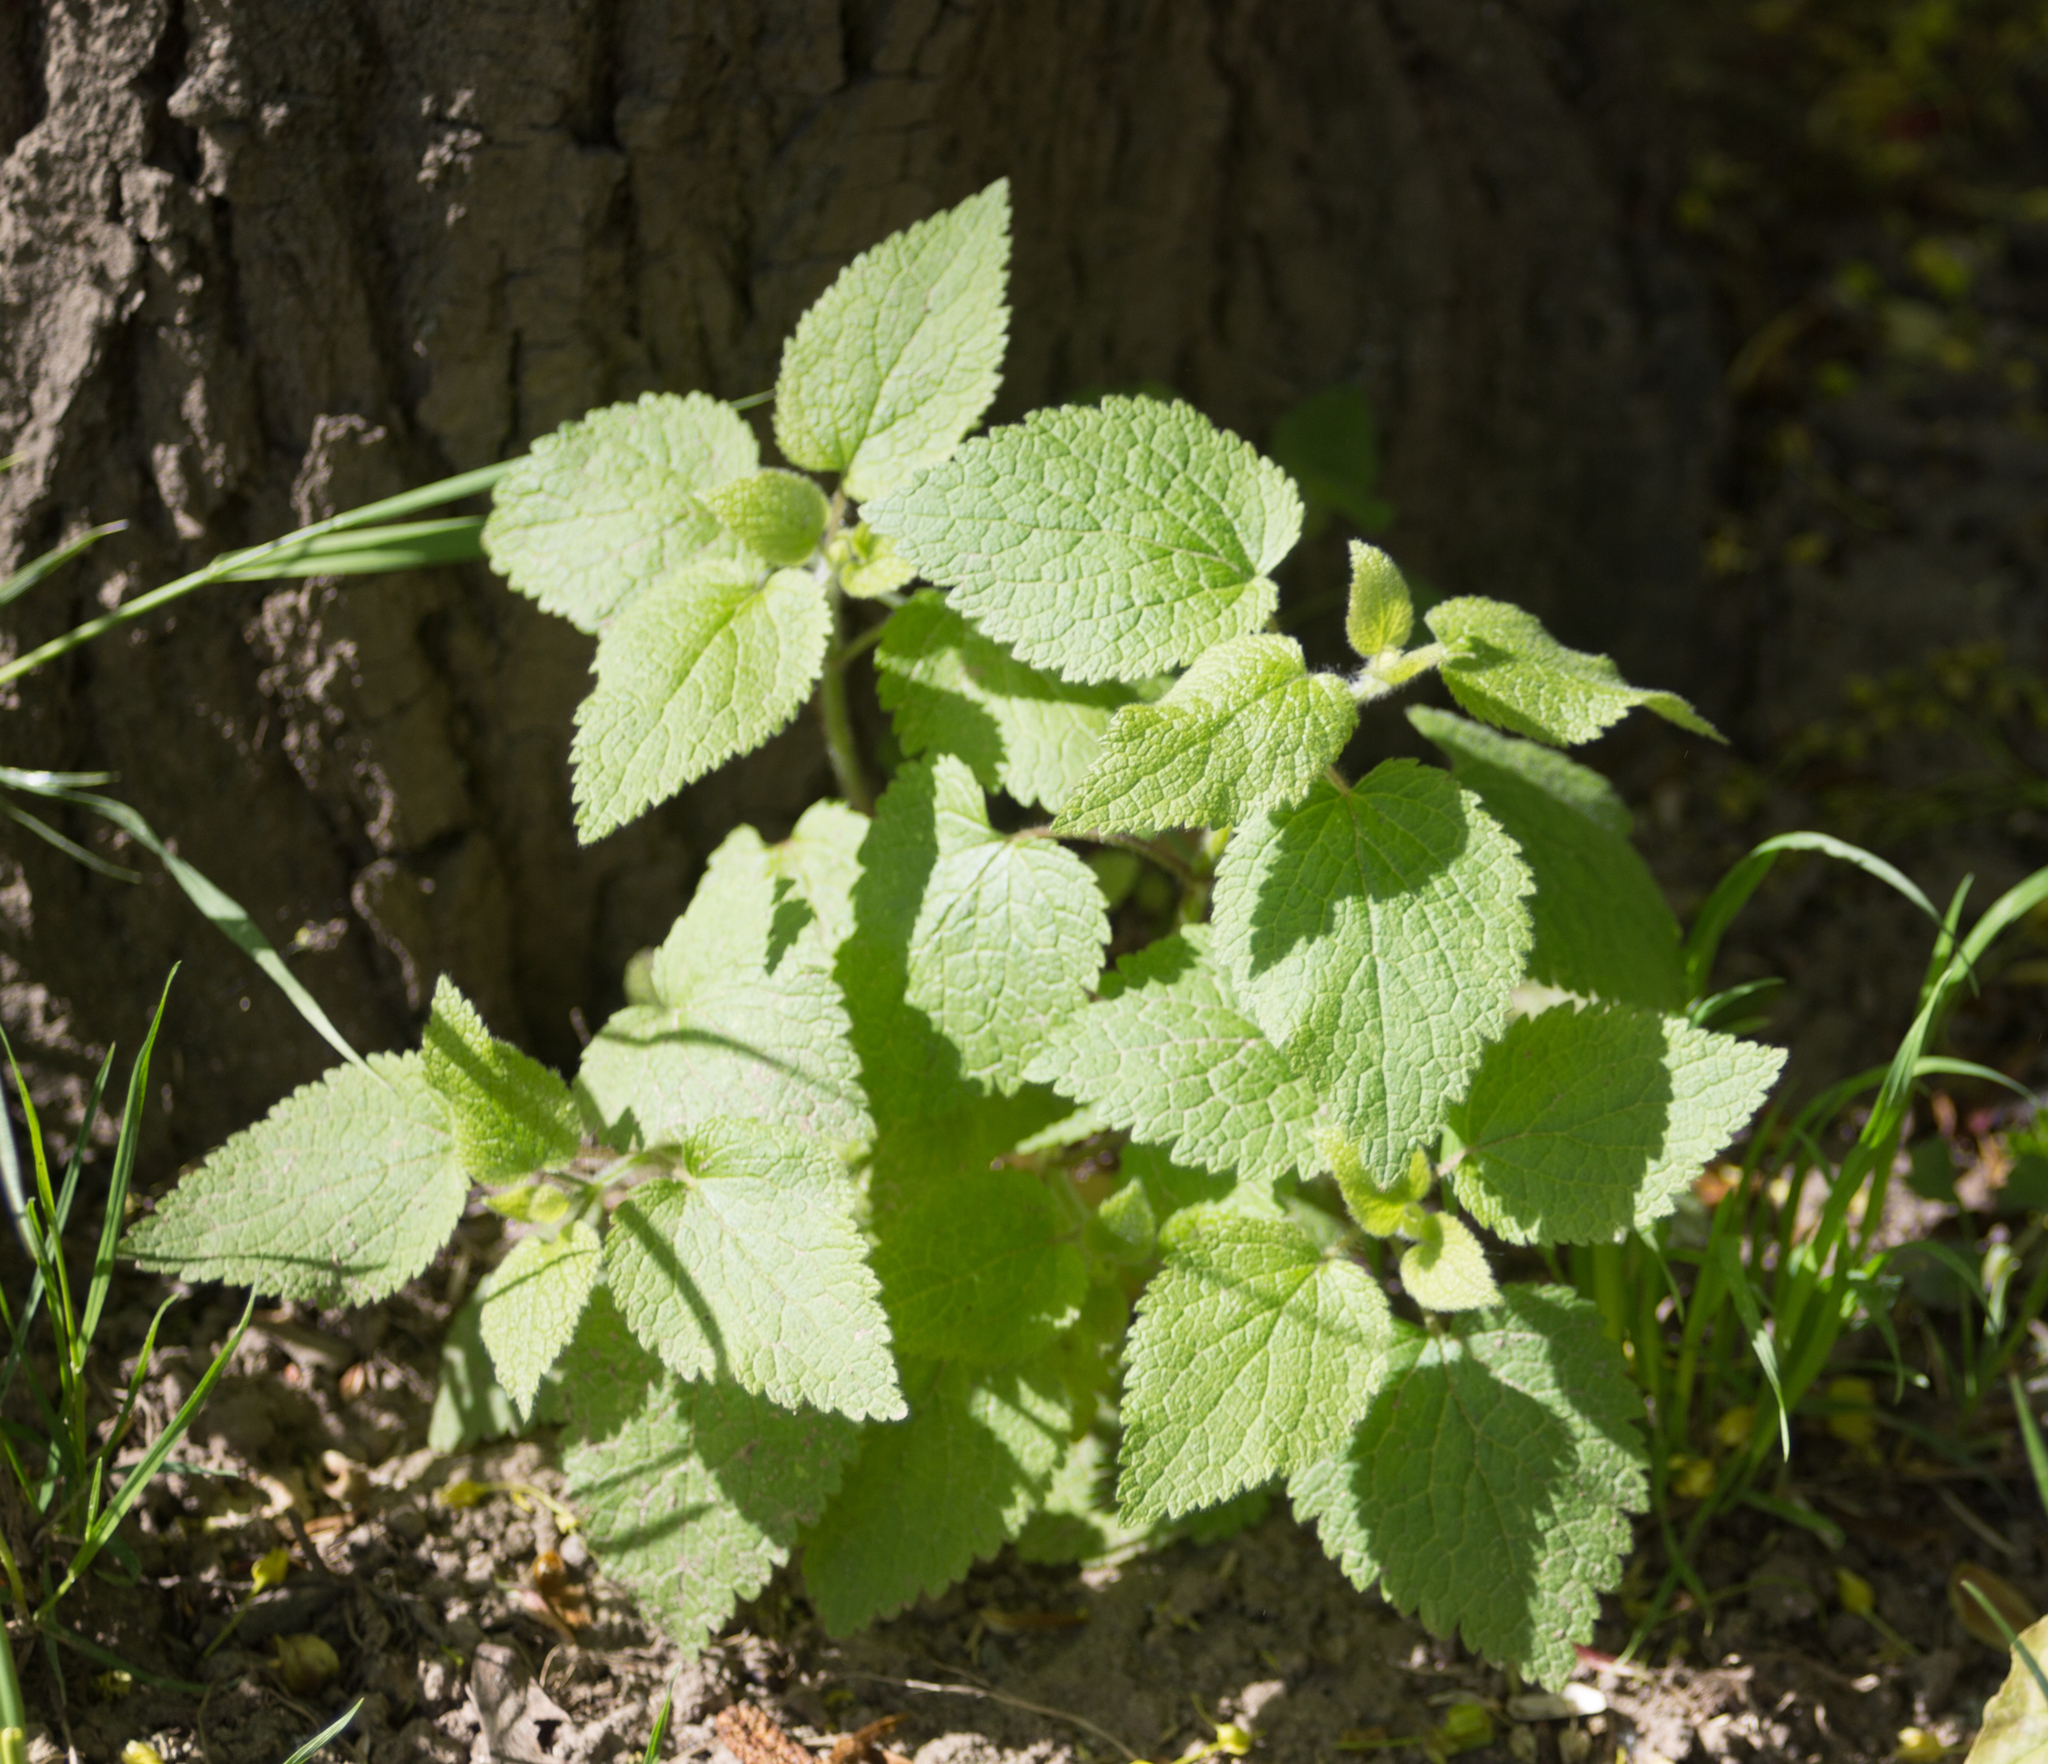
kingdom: Plantae
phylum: Tracheophyta
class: Magnoliopsida
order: Lamiales
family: Lamiaceae
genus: Stachys
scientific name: Stachys sylvatica
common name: Hedge woundwort
